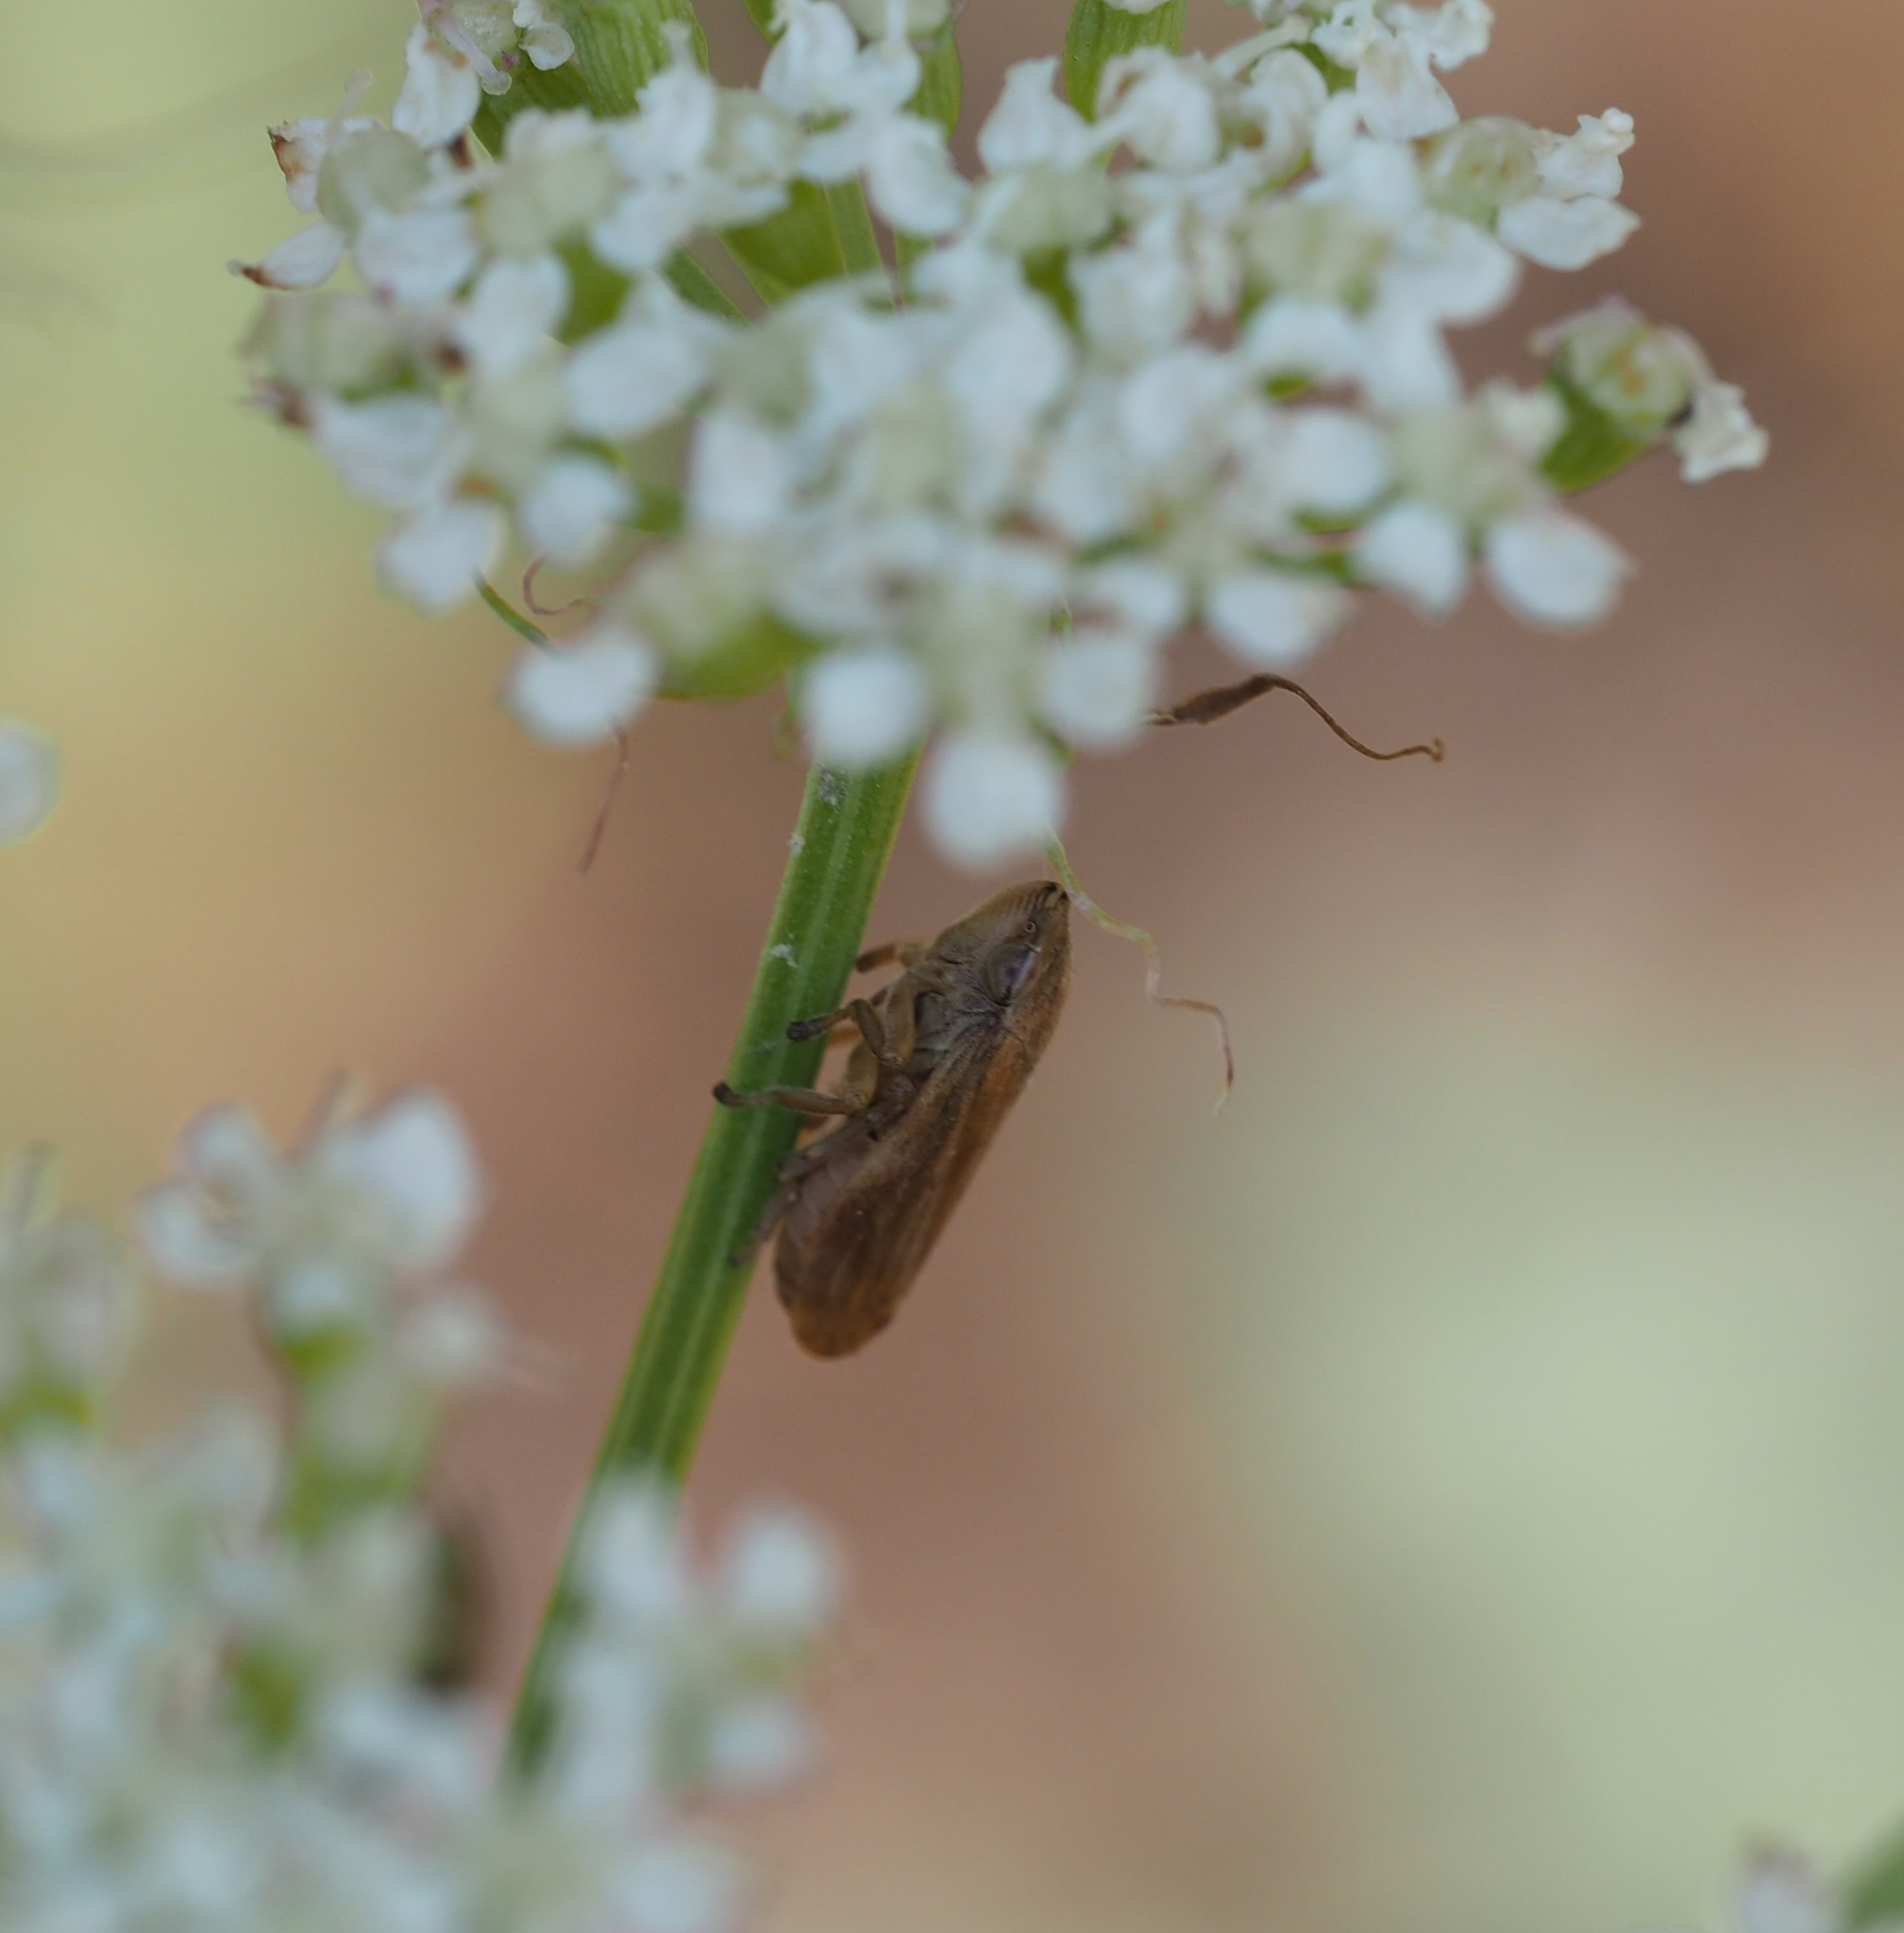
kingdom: Animalia
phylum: Arthropoda
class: Insecta
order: Hemiptera
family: Aphrophoridae
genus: Philaenus
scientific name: Philaenus spumarius
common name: Meadow spittlebug
